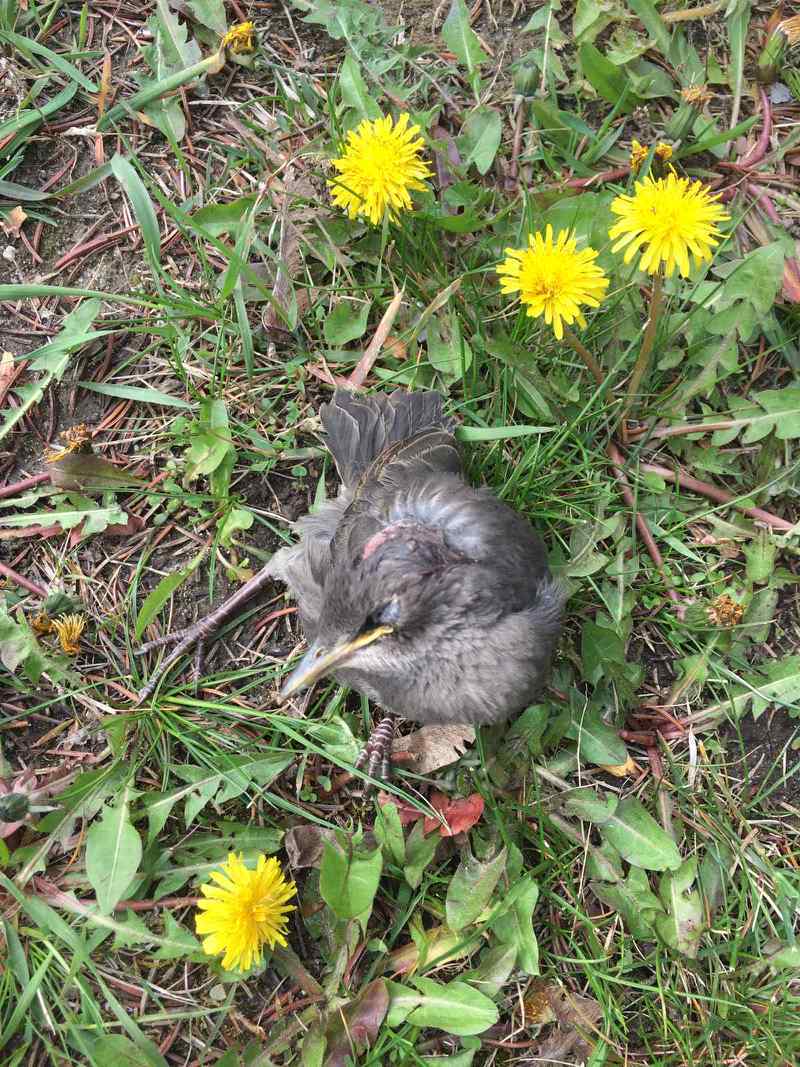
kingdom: Animalia
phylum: Chordata
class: Aves
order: Passeriformes
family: Sturnidae
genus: Sturnus
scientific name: Sturnus vulgaris
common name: Common starling
